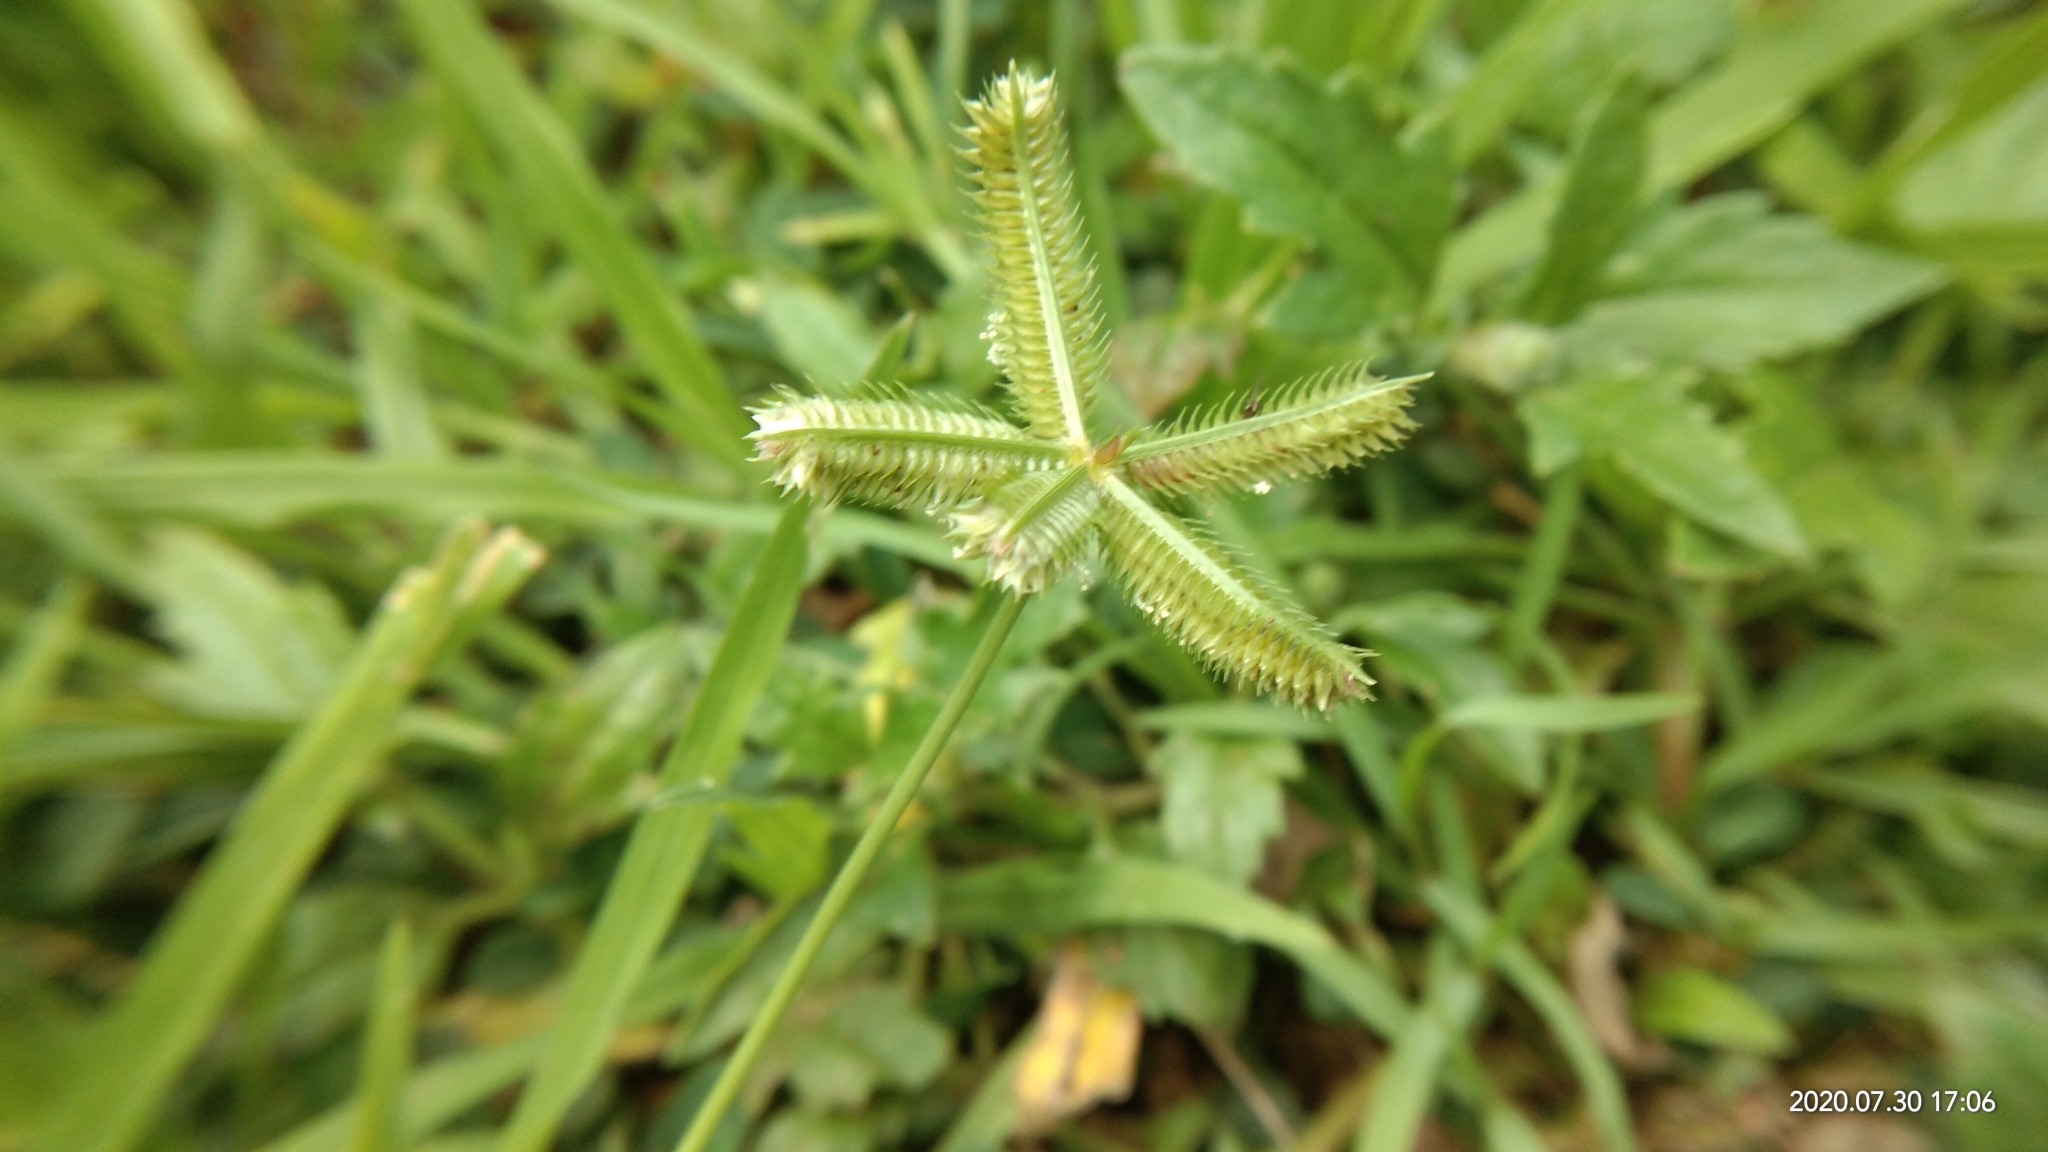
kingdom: Plantae
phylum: Tracheophyta
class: Liliopsida
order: Poales
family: Poaceae
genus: Dactyloctenium
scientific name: Dactyloctenium aegyptium
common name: Egyptian grass
